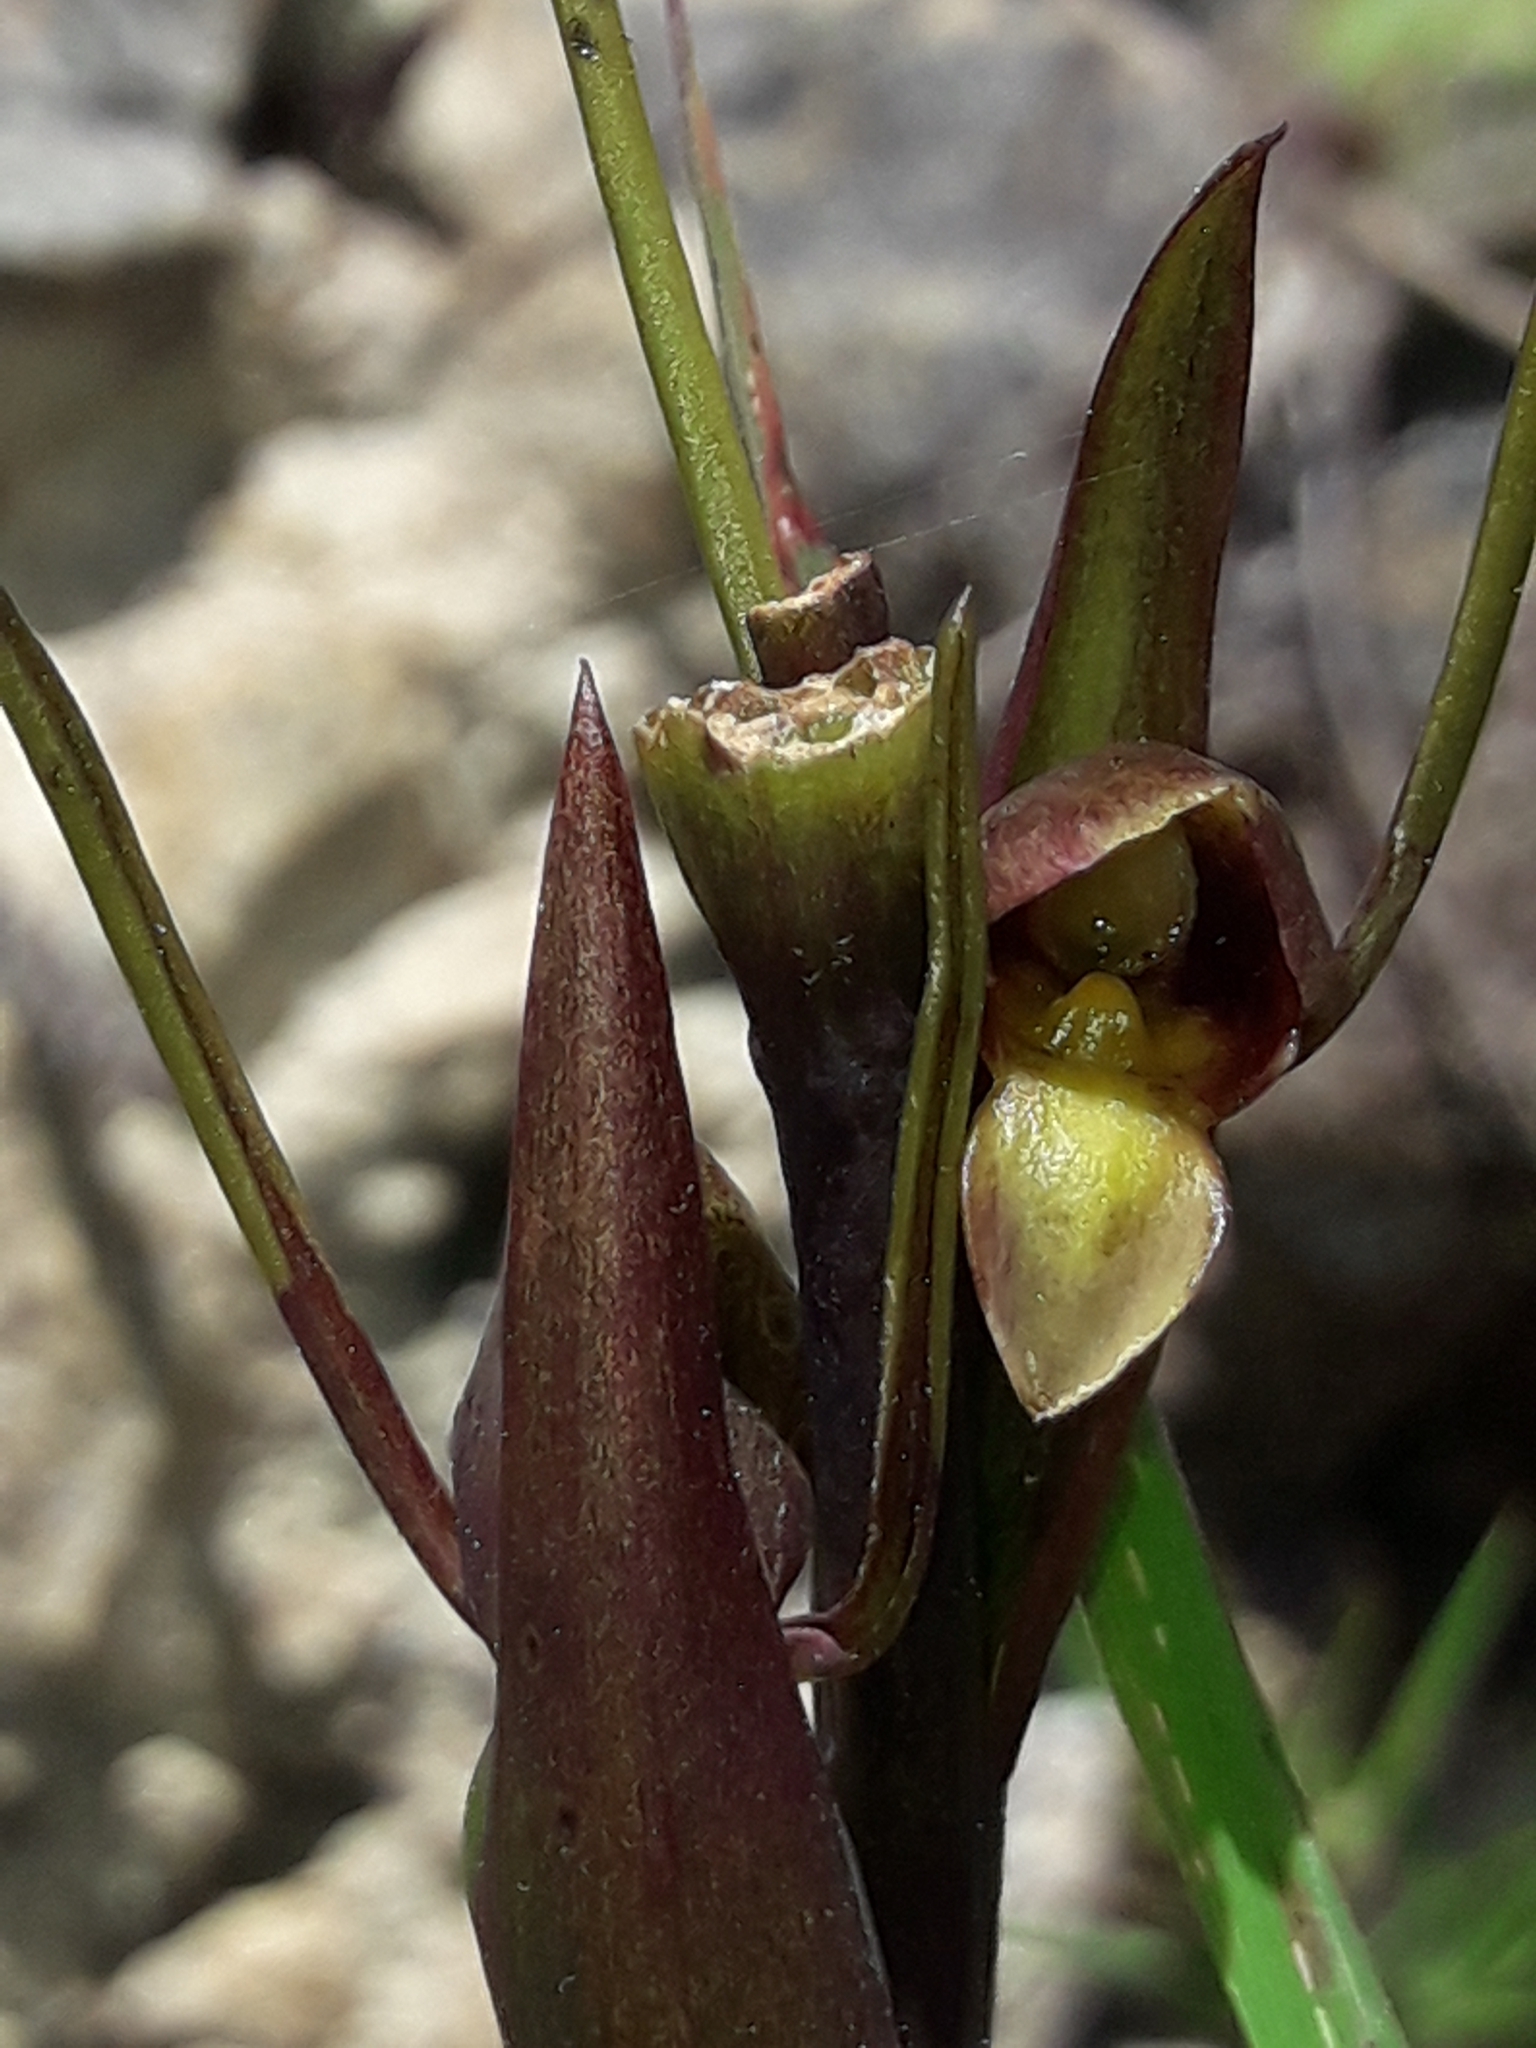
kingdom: Plantae
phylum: Tracheophyta
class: Liliopsida
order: Asparagales
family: Orchidaceae
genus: Orthoceras
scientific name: Orthoceras novae-zeelandiae
